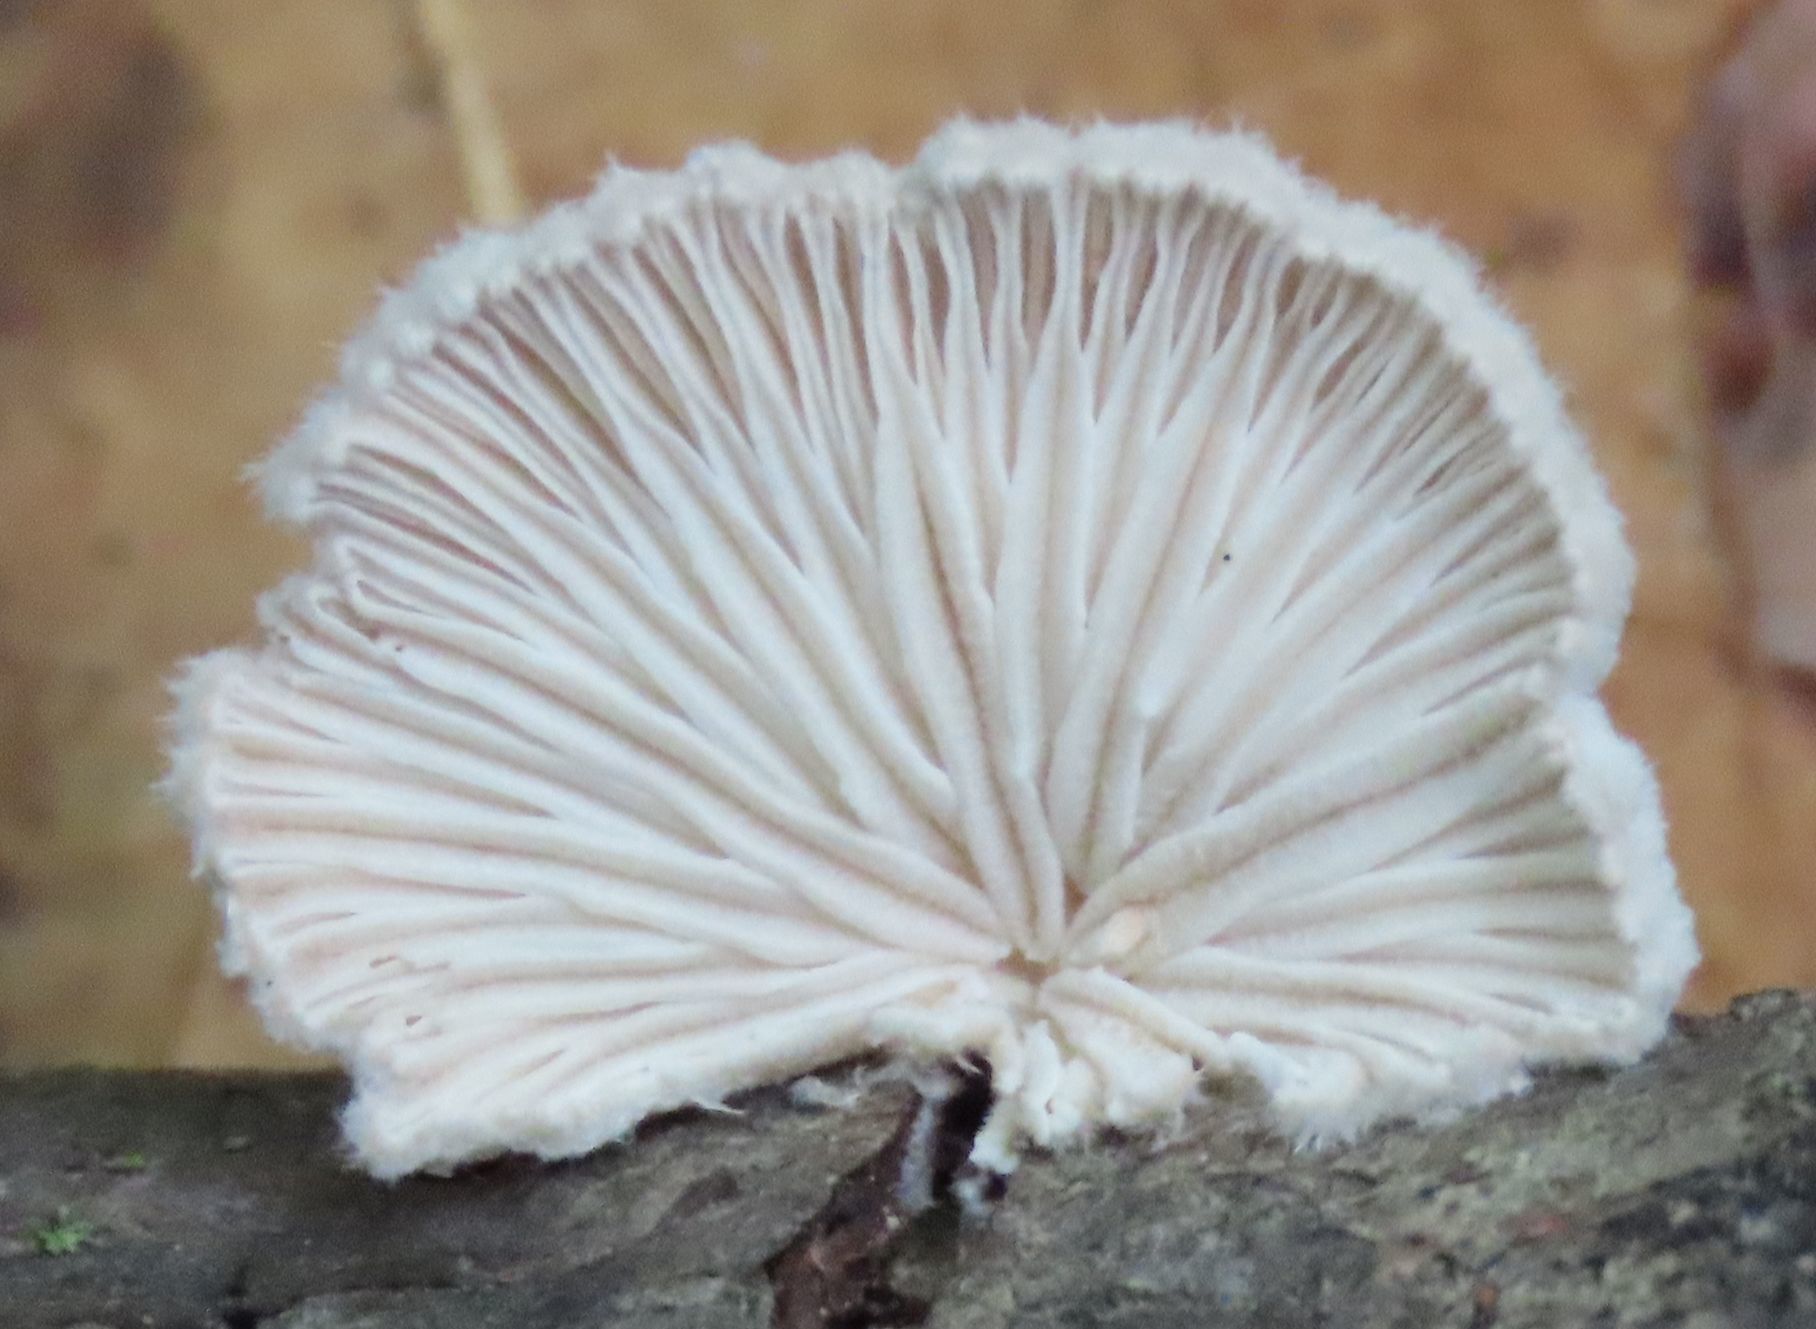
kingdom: Fungi
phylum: Basidiomycota
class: Agaricomycetes
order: Agaricales
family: Schizophyllaceae
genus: Schizophyllum
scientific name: Schizophyllum commune
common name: Common porecrust
